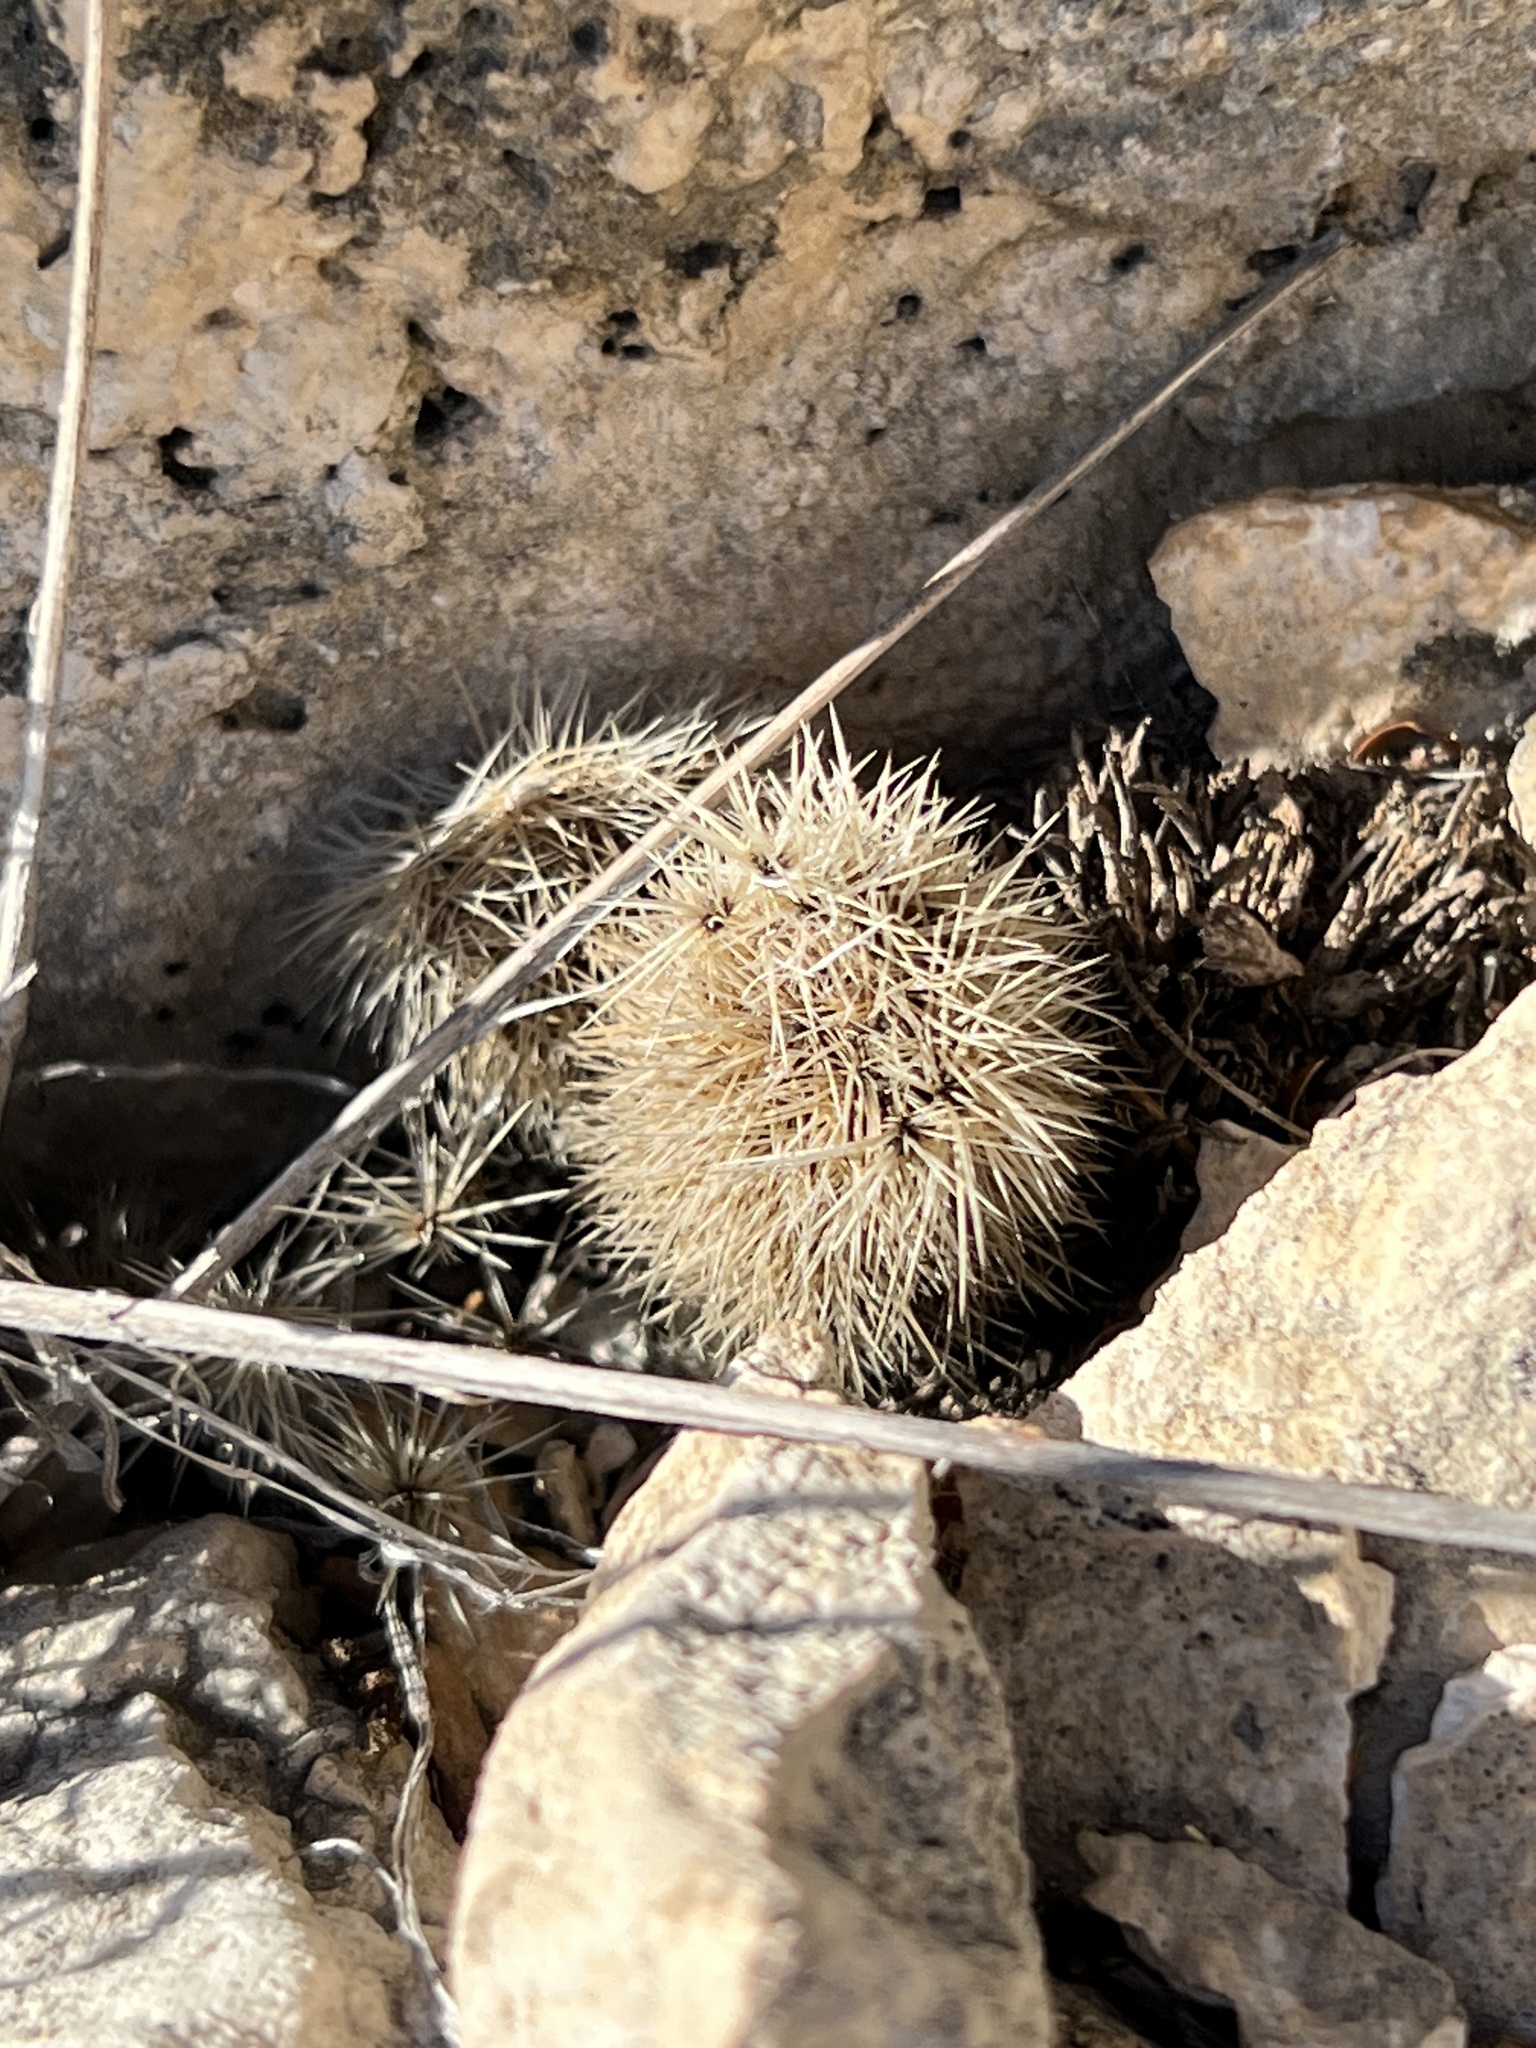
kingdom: Plantae
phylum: Tracheophyta
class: Magnoliopsida
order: Caryophyllales
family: Cactaceae
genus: Echinocereus
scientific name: Echinocereus dasyacanthus
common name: Spiny hedgehog cactus
